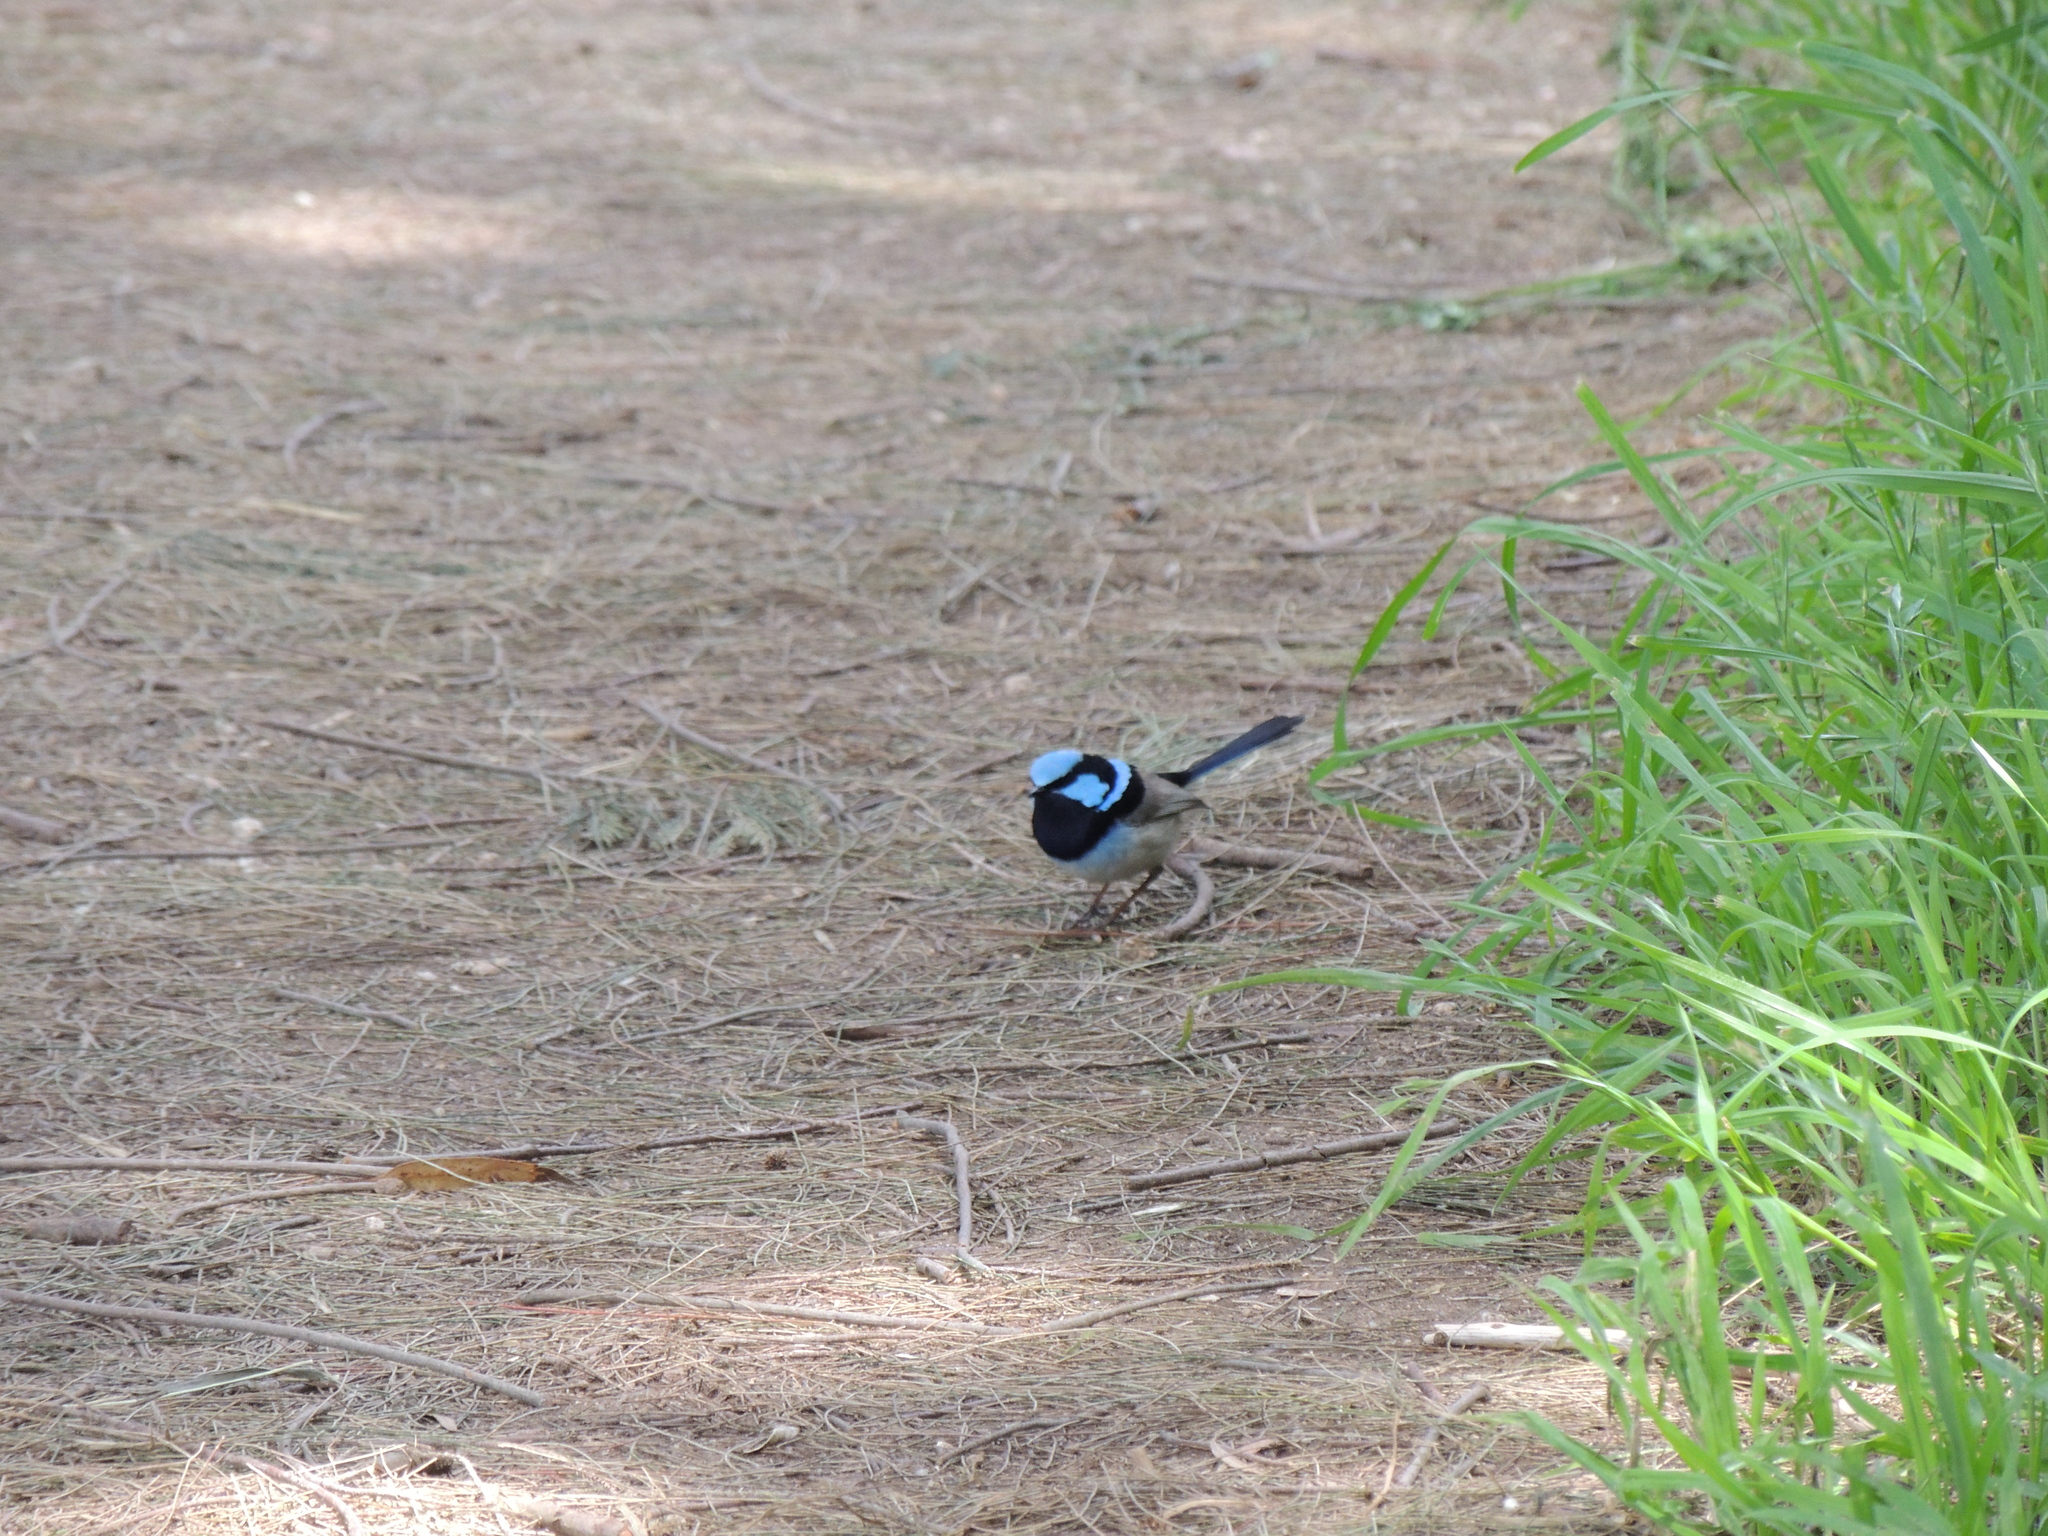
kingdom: Animalia
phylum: Chordata
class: Aves
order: Passeriformes
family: Maluridae
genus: Malurus
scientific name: Malurus cyaneus
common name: Superb fairywren
